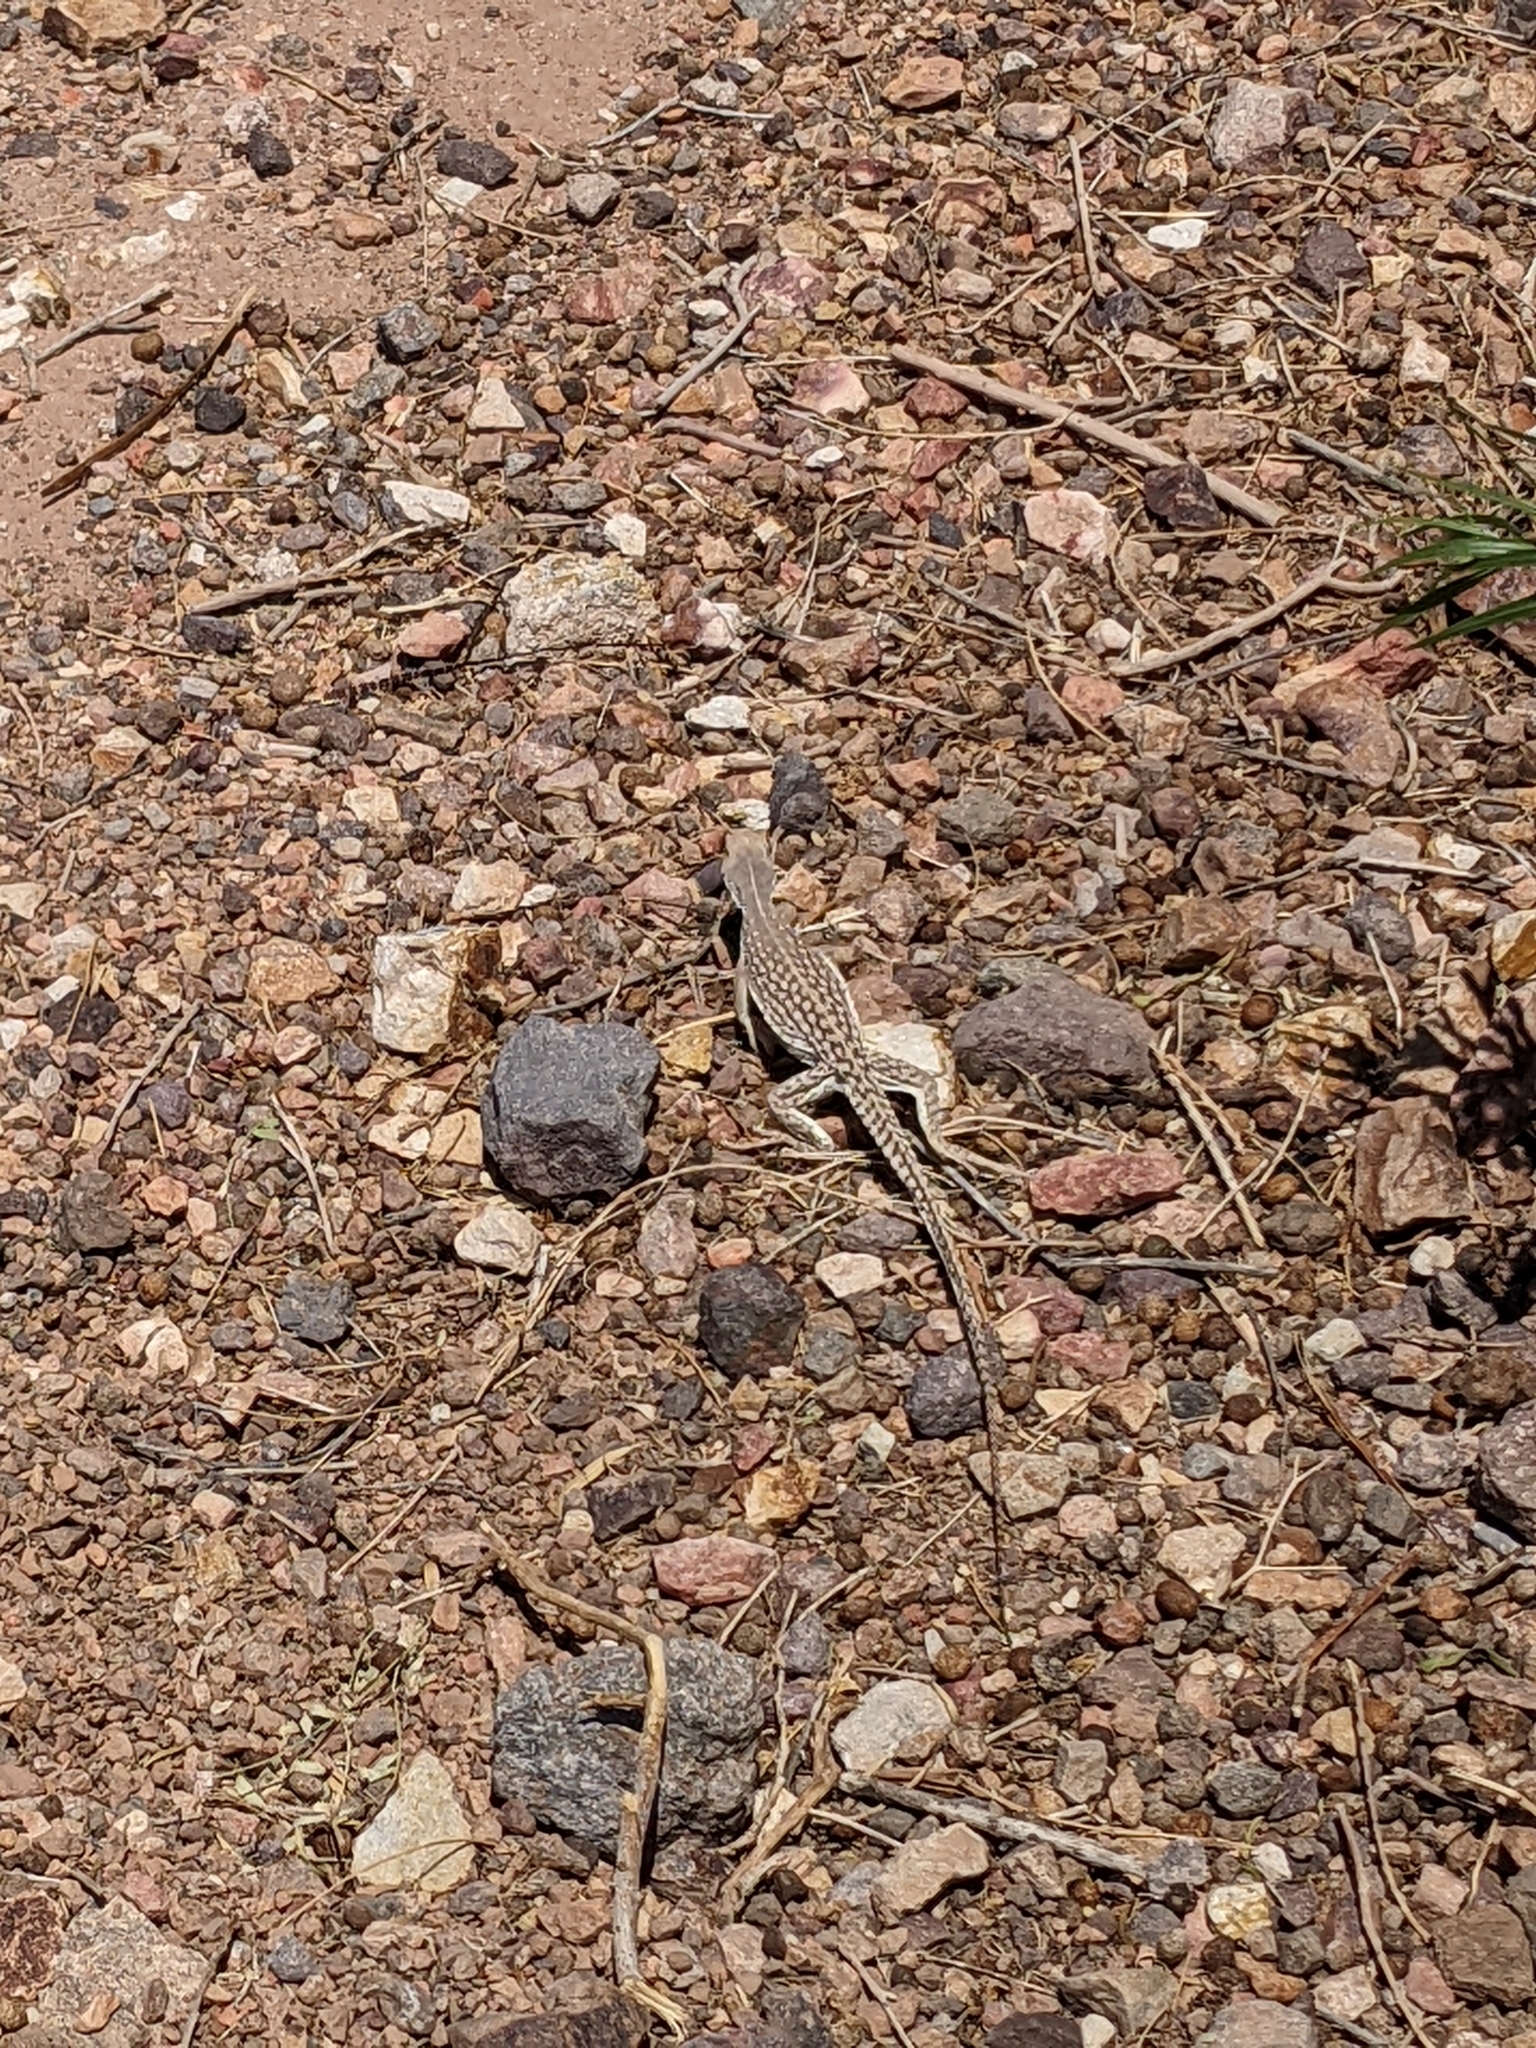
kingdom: Animalia
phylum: Chordata
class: Squamata
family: Iguanidae
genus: Dipsosaurus
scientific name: Dipsosaurus dorsalis
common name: Desert iguana
